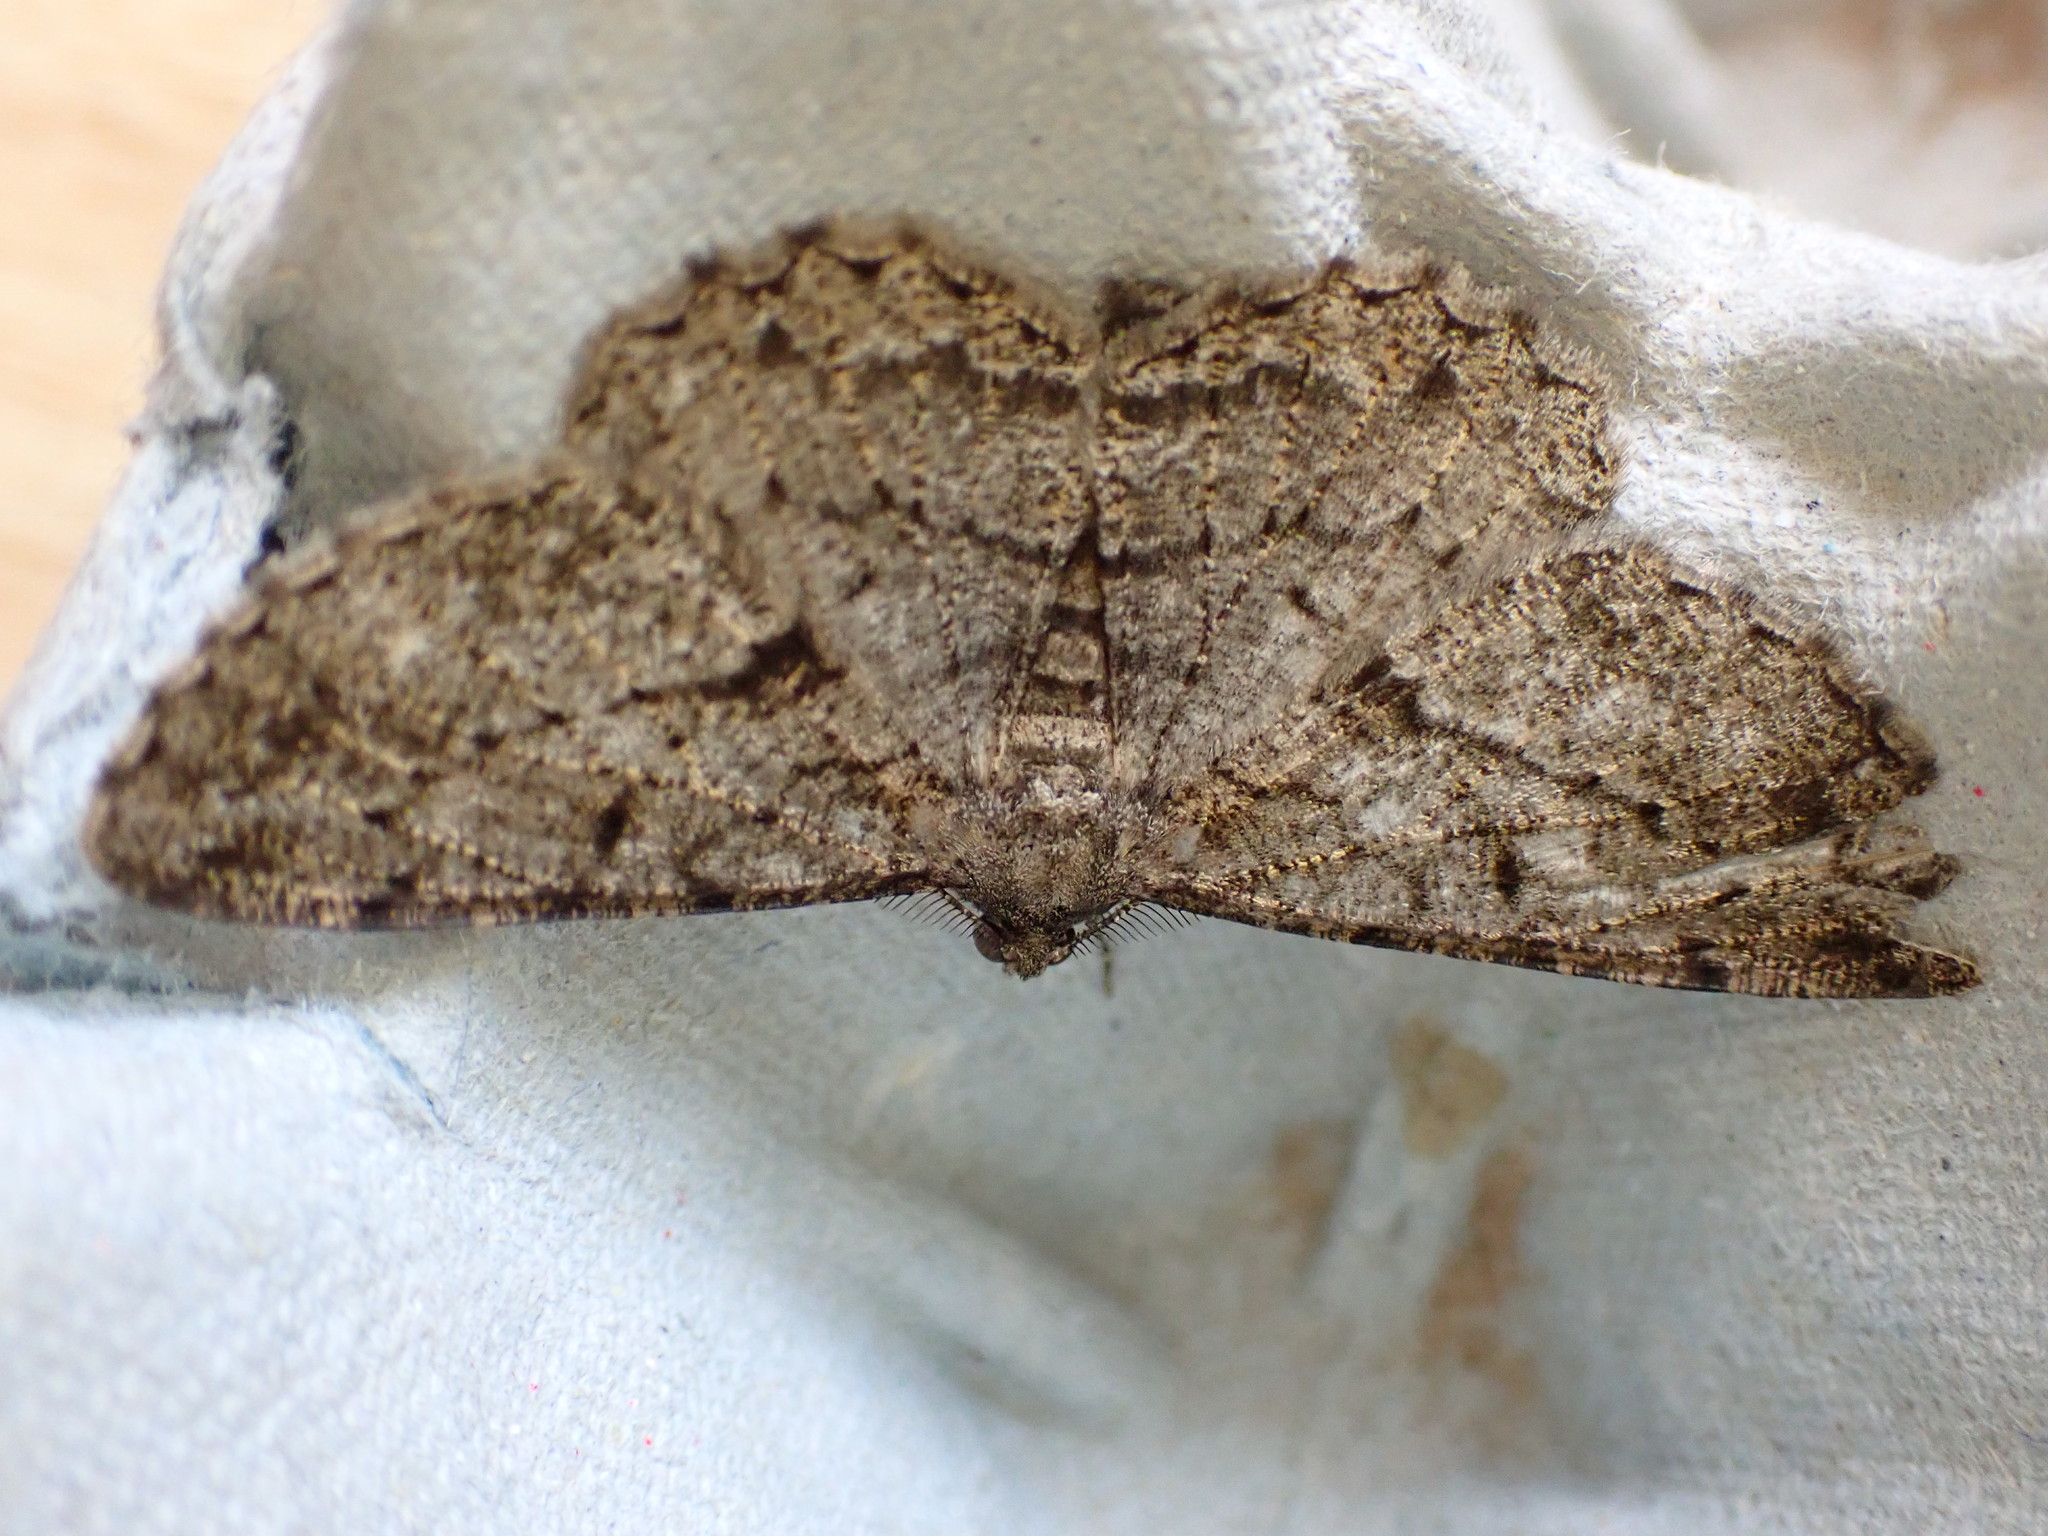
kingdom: Animalia
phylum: Arthropoda
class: Insecta
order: Lepidoptera
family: Geometridae
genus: Peribatodes
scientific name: Peribatodes rhomboidaria
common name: Willow beauty
